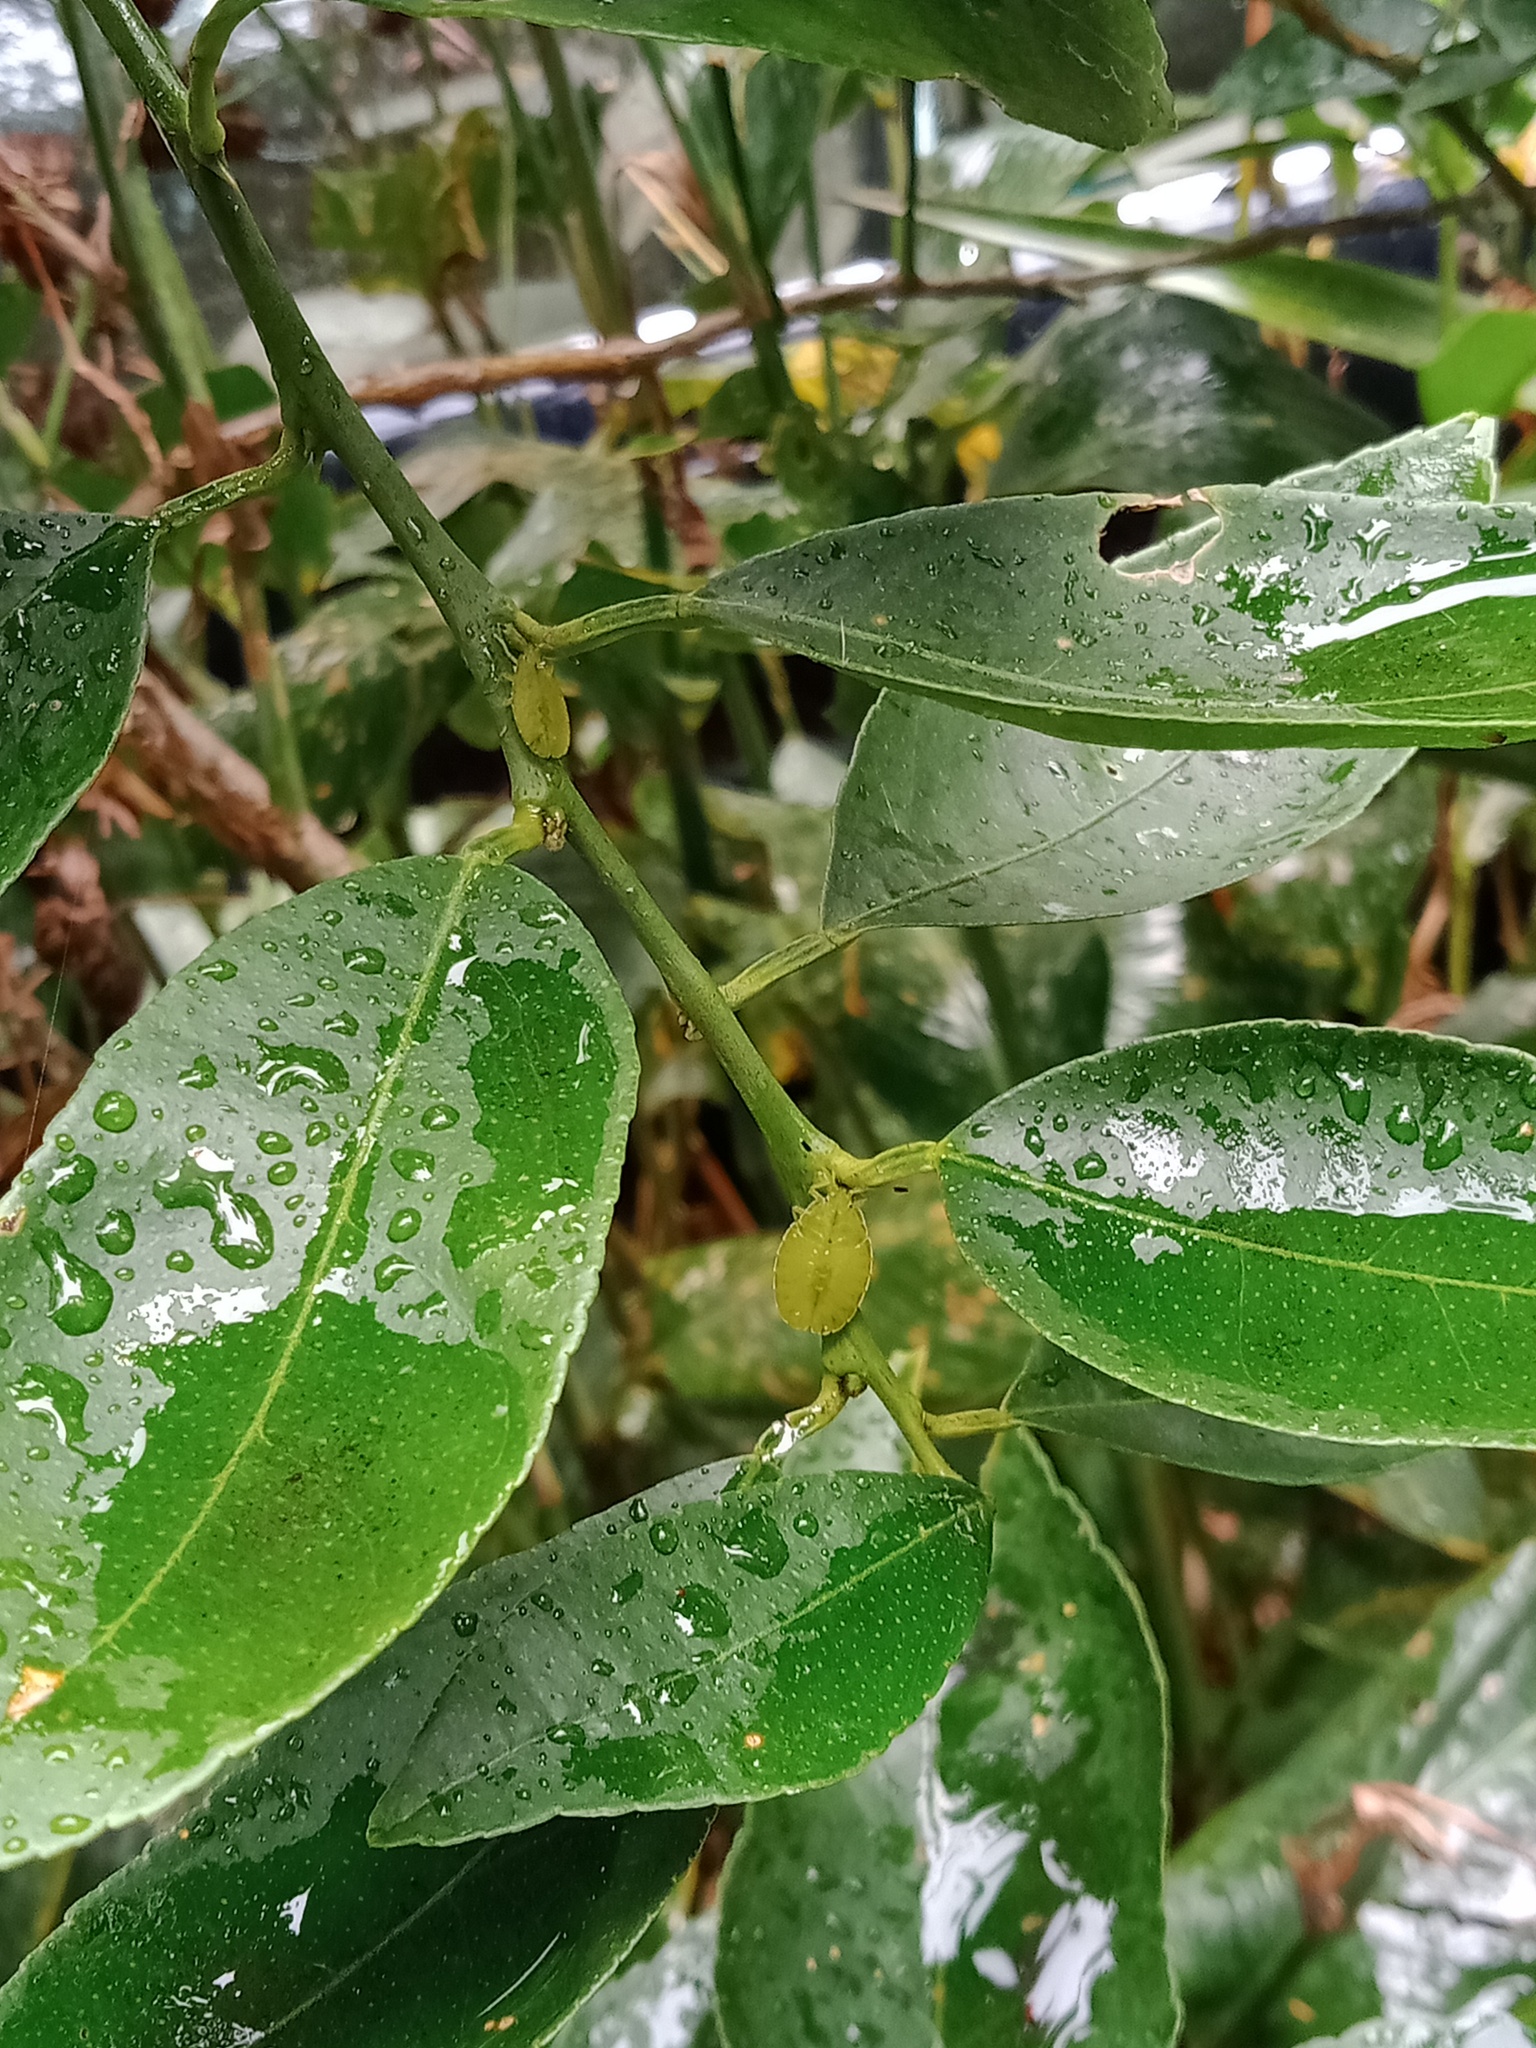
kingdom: Animalia
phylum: Arthropoda
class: Insecta
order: Hemiptera
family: Tessaratomidae
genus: Musgraveia
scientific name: Musgraveia sulciventris
